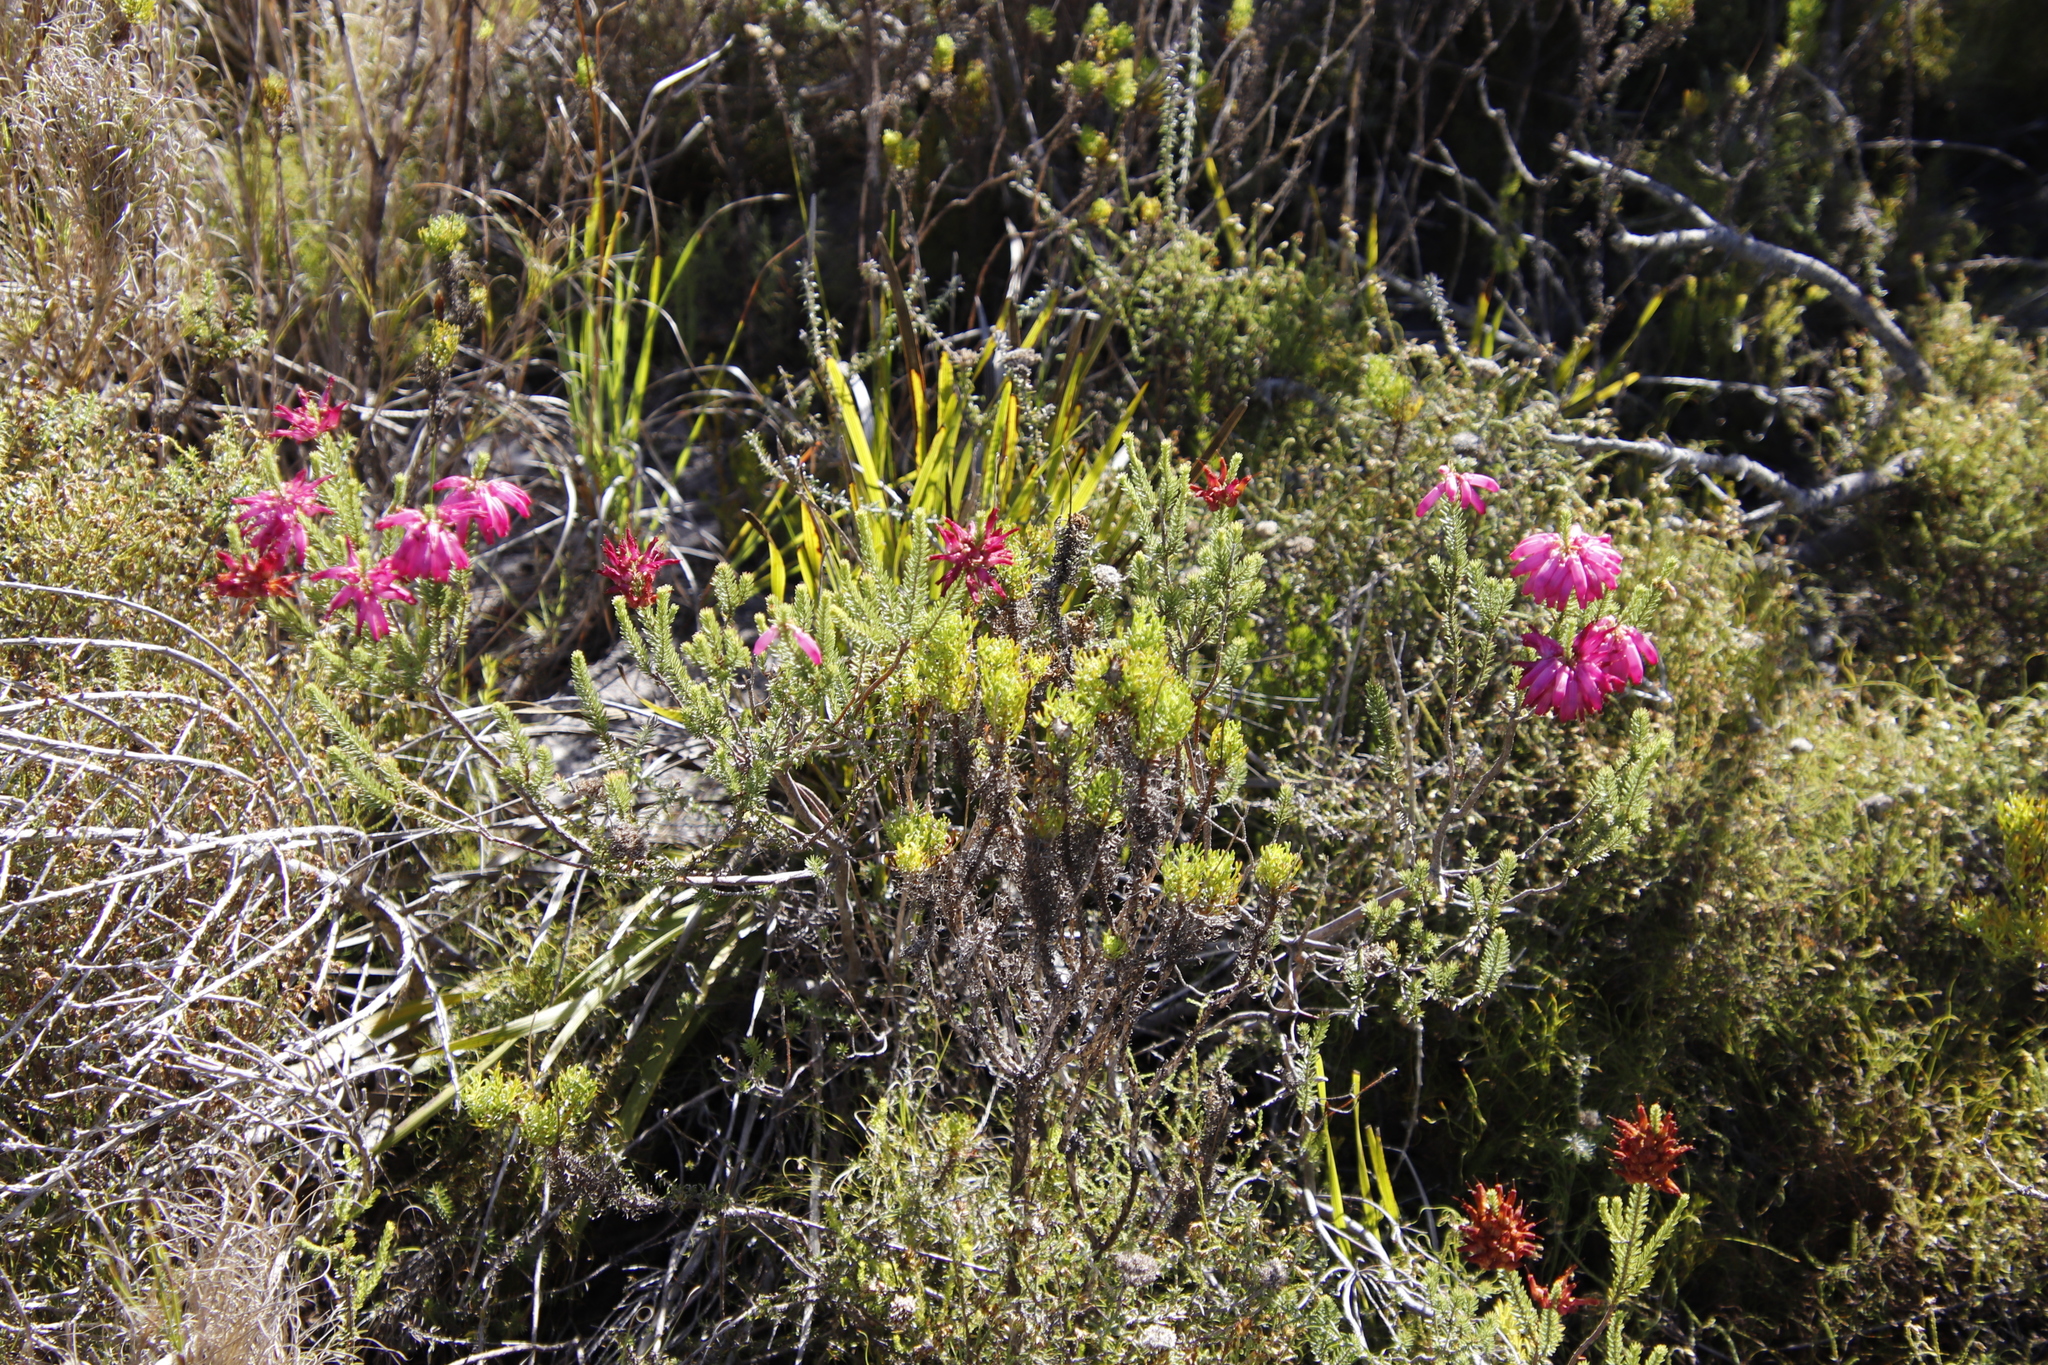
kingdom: Plantae
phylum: Tracheophyta
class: Magnoliopsida
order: Ericales
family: Ericaceae
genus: Erica
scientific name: Erica mammosa
